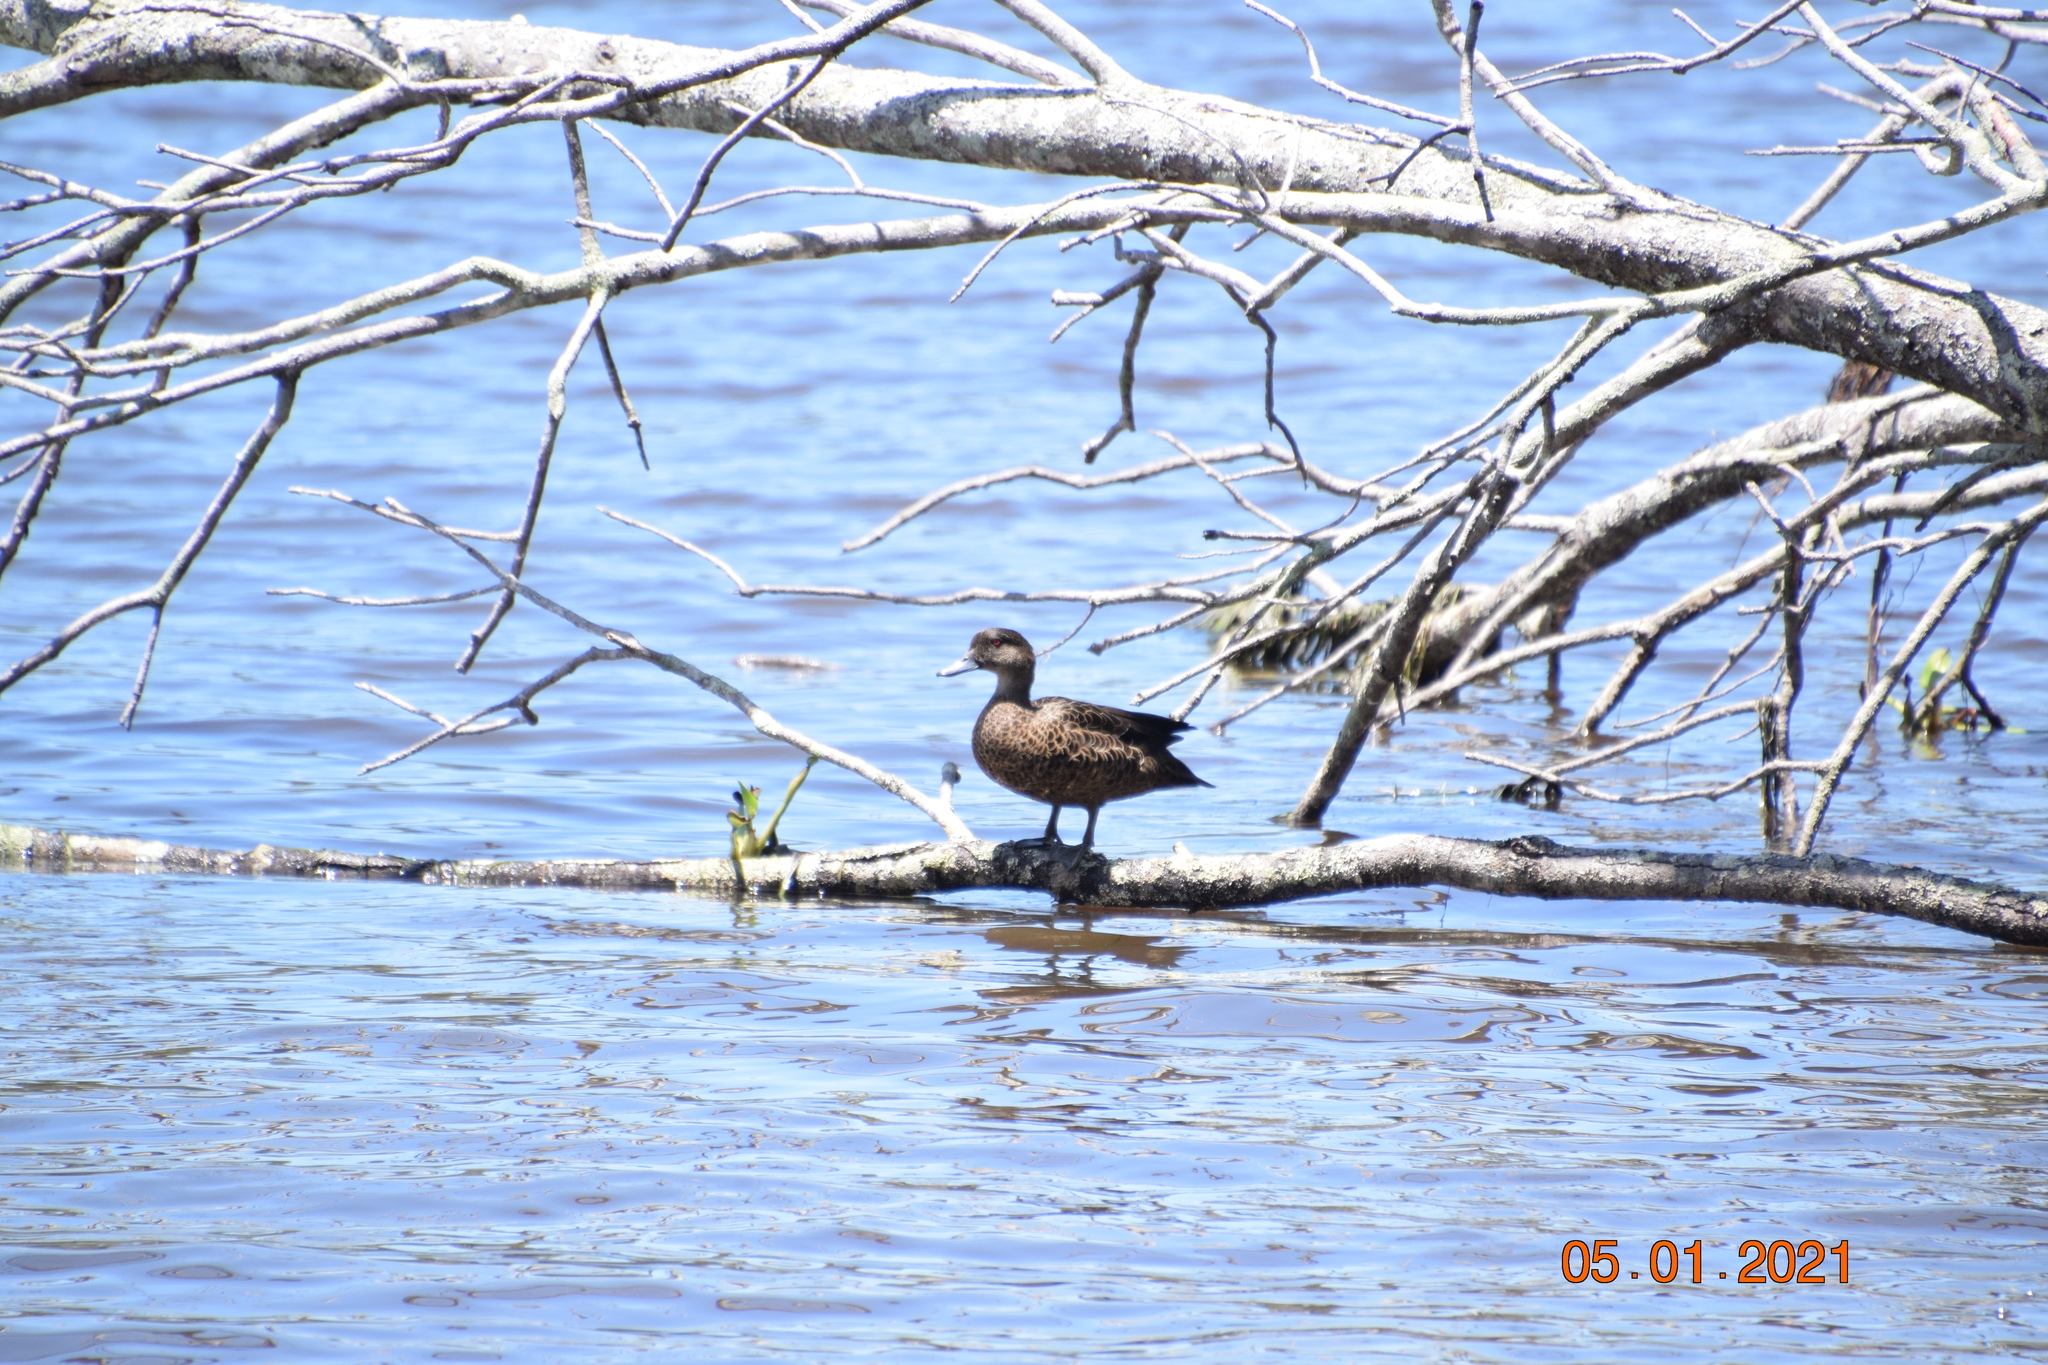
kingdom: Animalia
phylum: Chordata
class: Aves
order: Anseriformes
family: Anatidae
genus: Anas
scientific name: Anas castanea
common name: Chestnut teal
